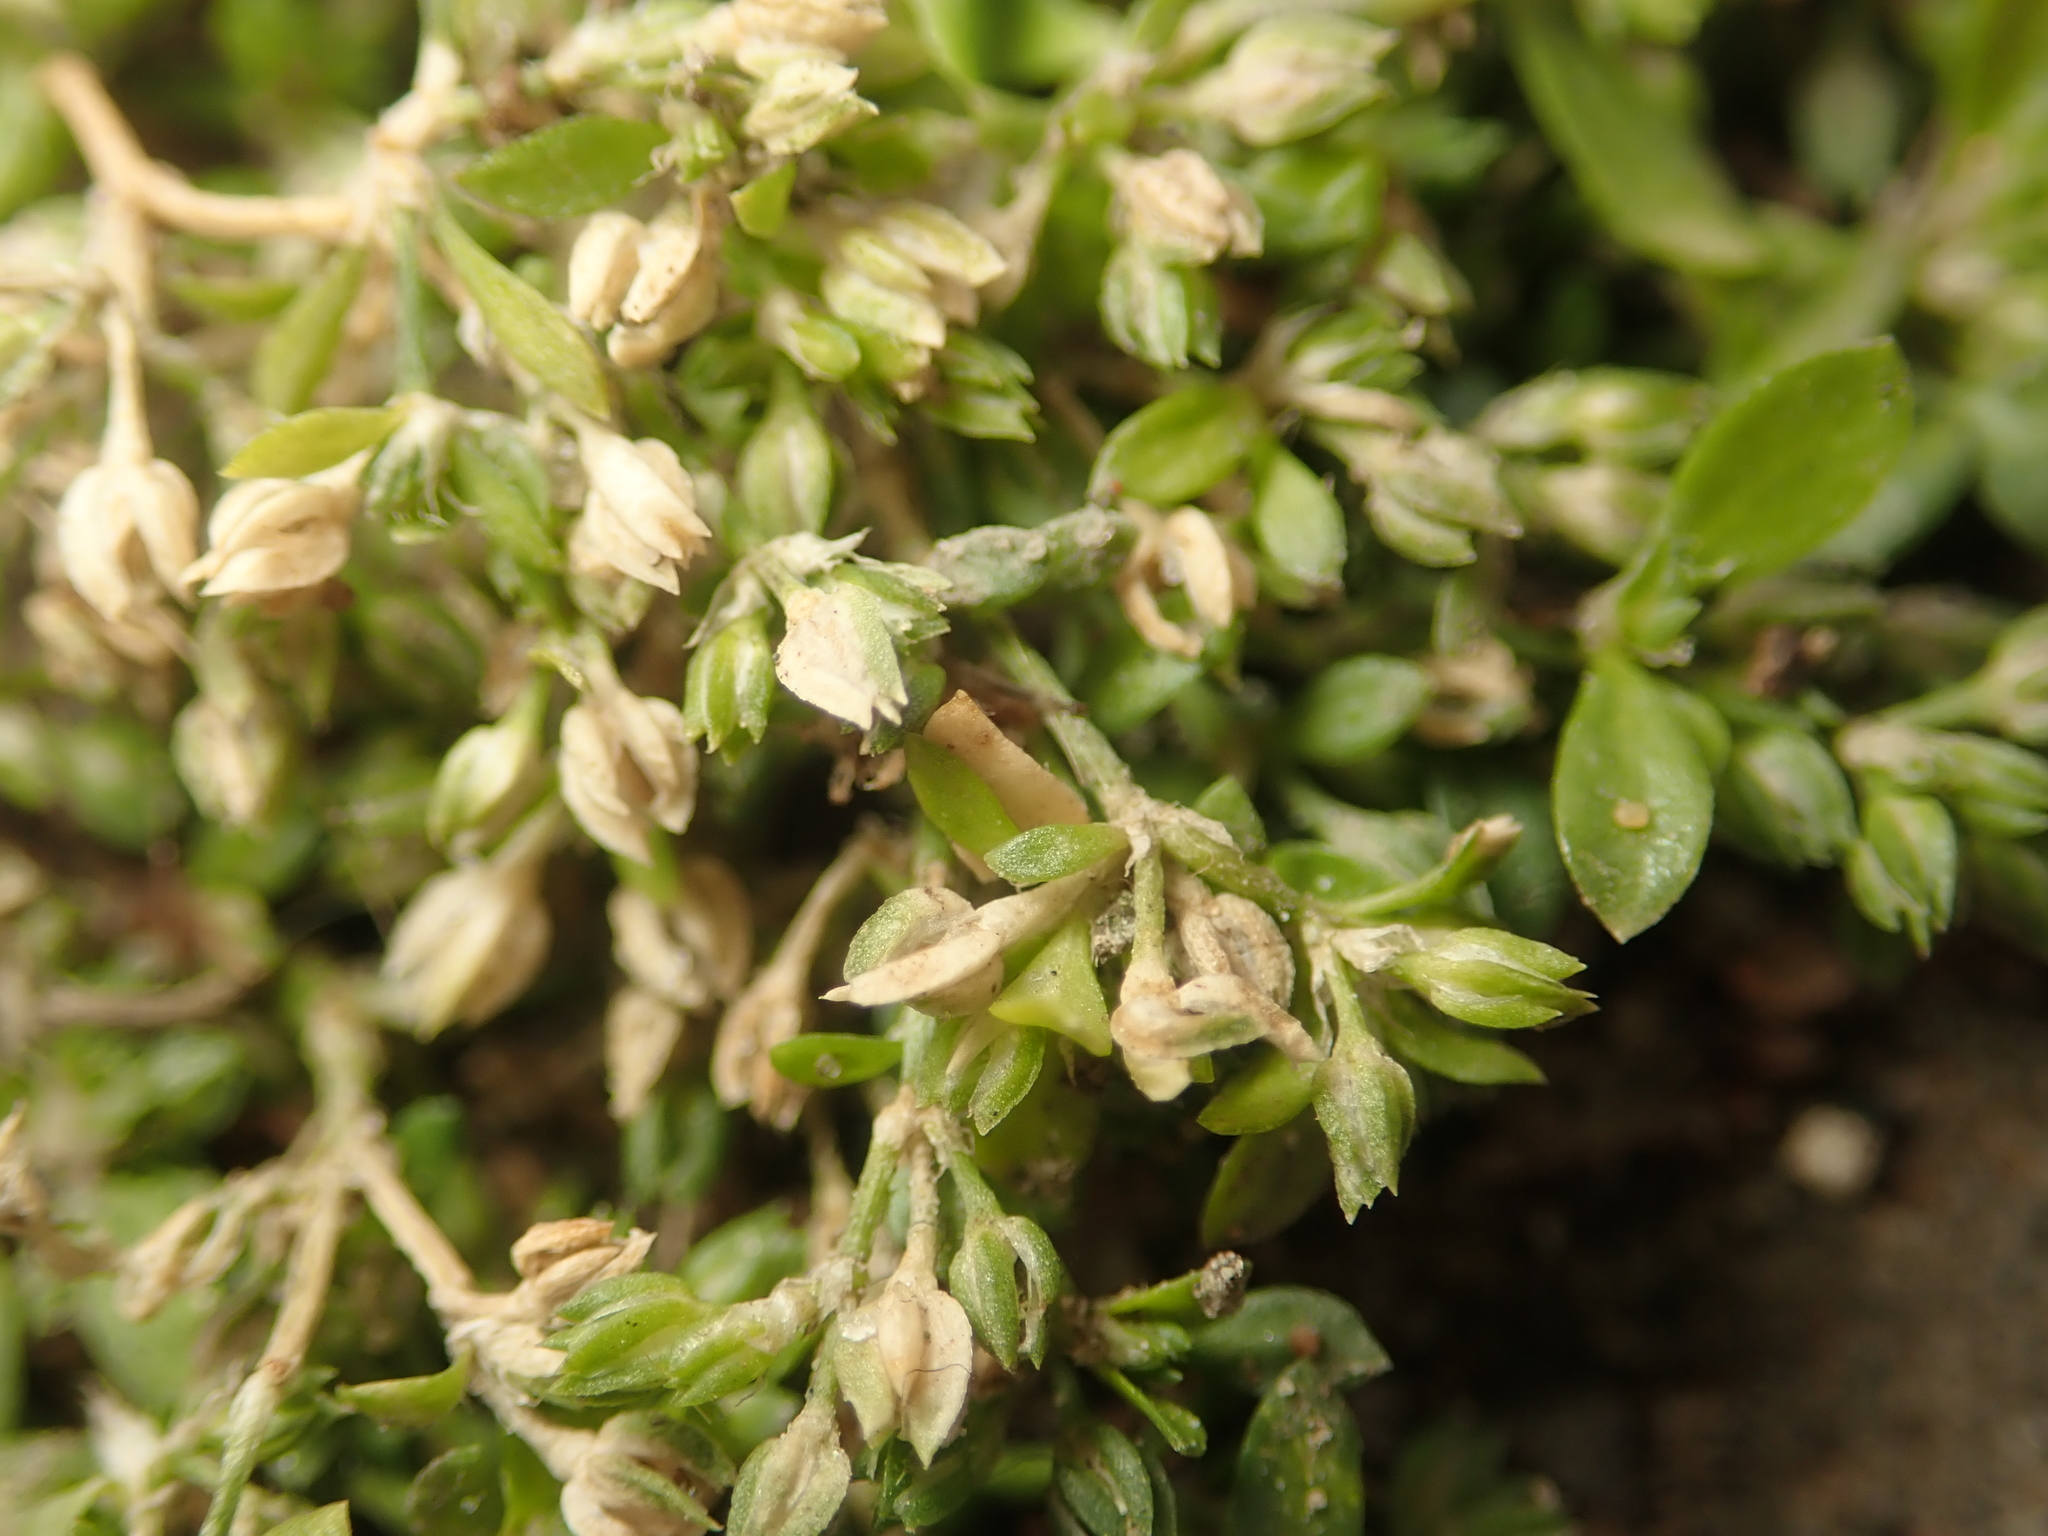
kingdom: Plantae
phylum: Tracheophyta
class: Magnoliopsida
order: Caryophyllales
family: Caryophyllaceae
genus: Polycarpon
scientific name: Polycarpon tetraphyllum
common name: Four-leaved all-seed
